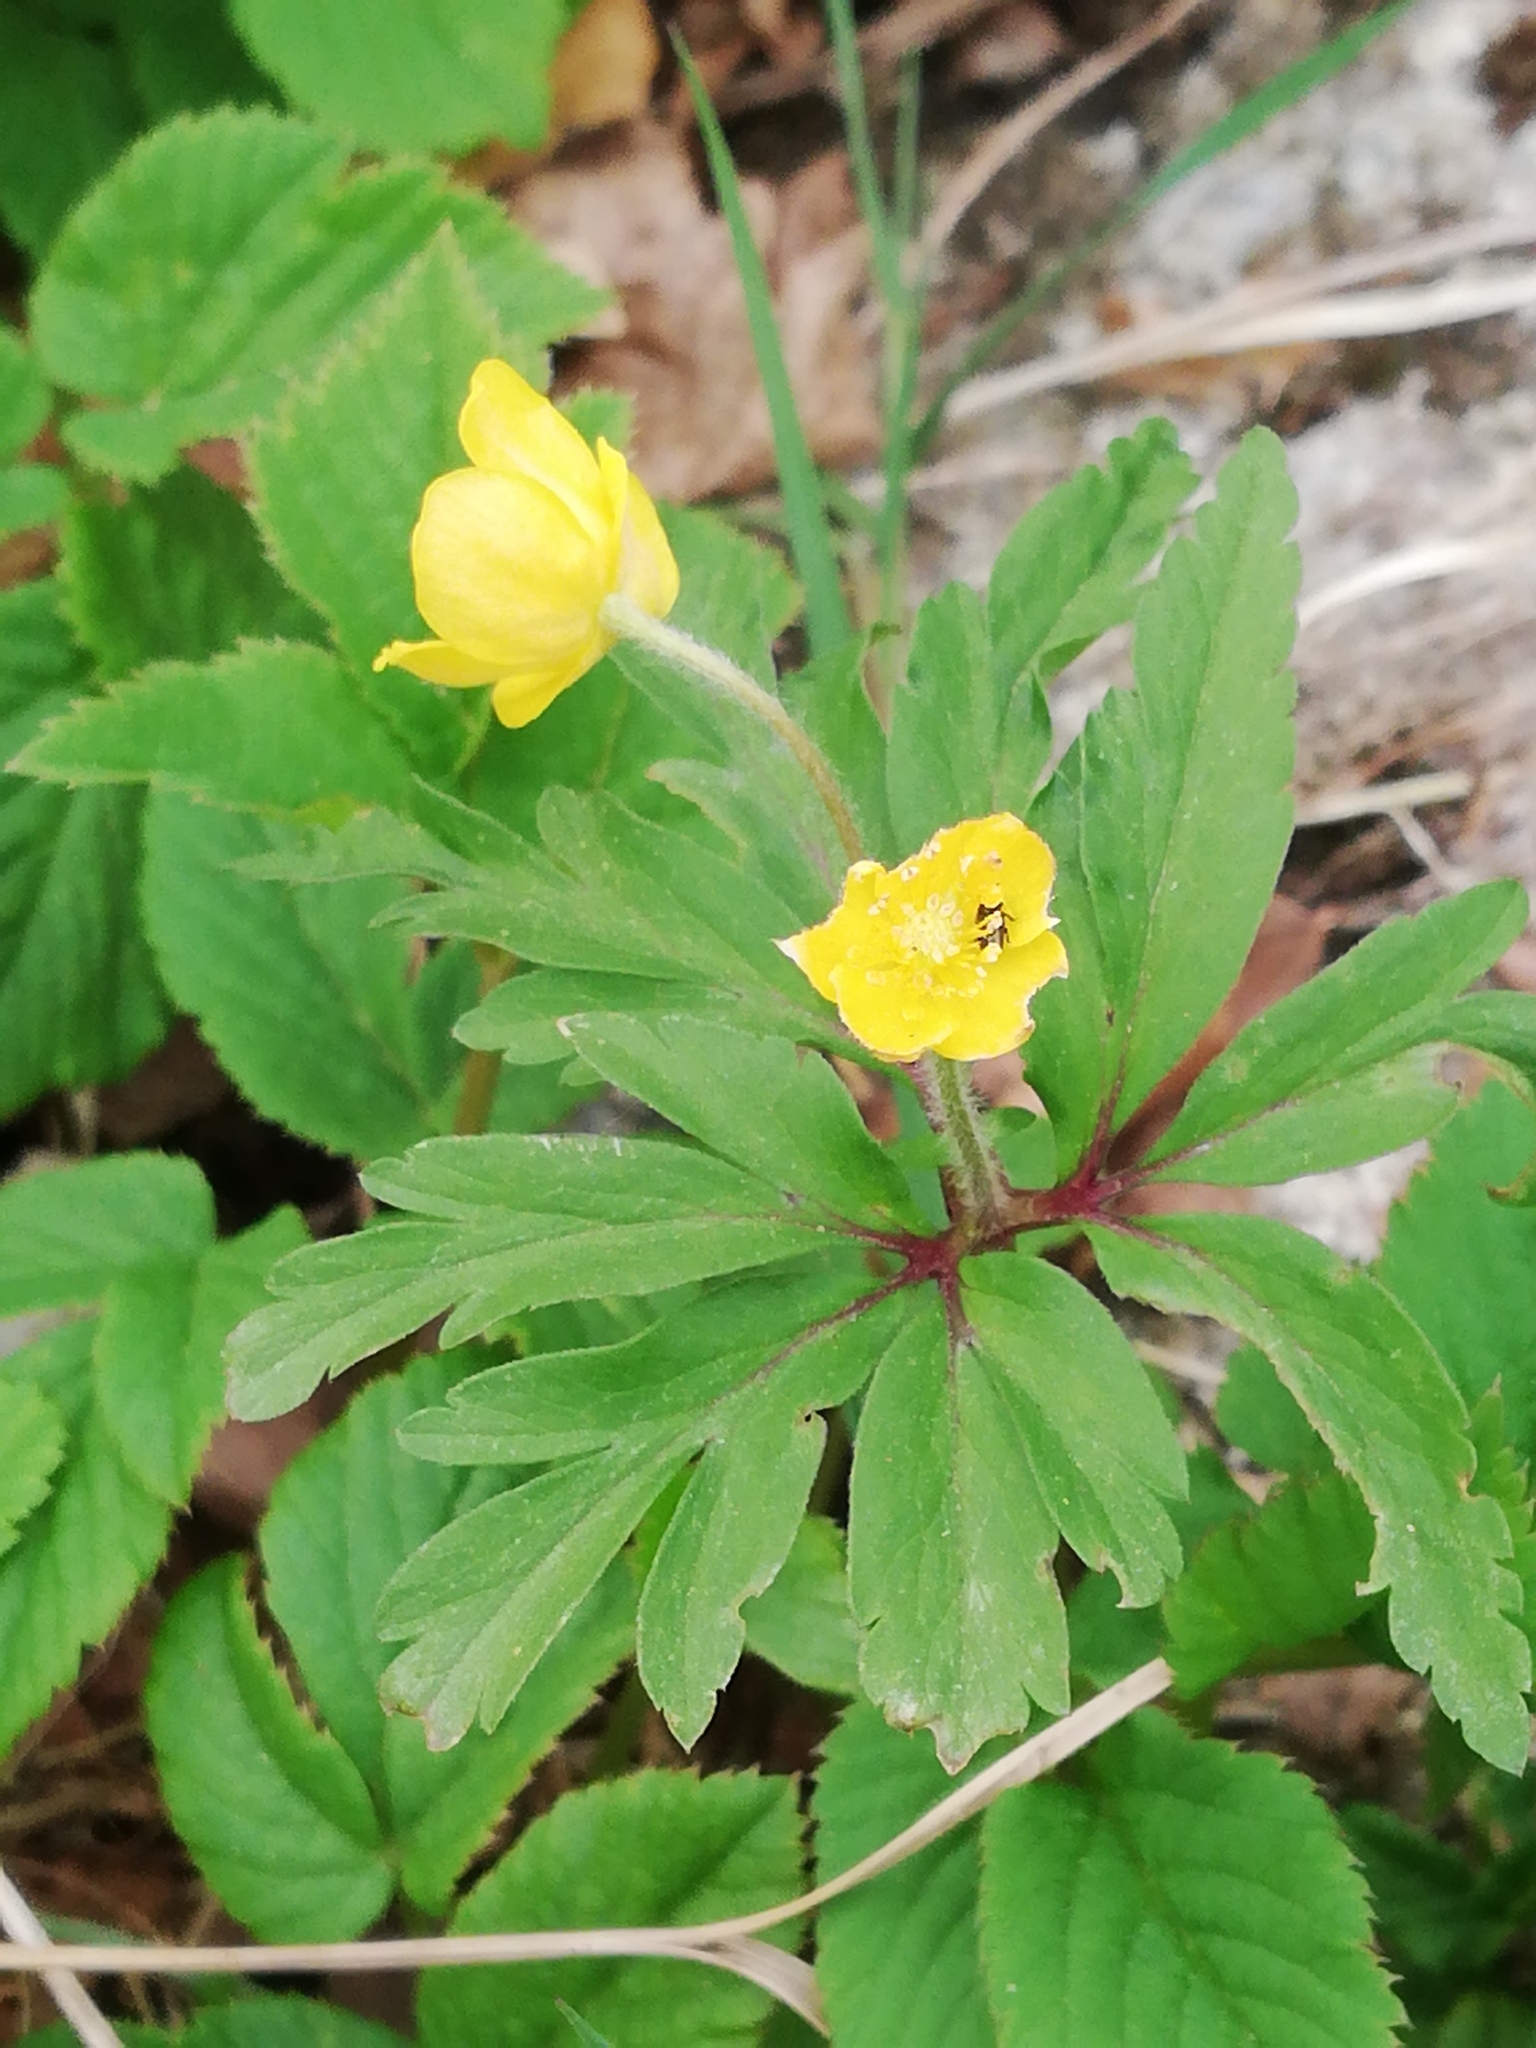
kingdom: Plantae
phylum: Tracheophyta
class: Magnoliopsida
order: Ranunculales
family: Ranunculaceae
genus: Anemone
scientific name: Anemone ranunculoides
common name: Yellow anemone
